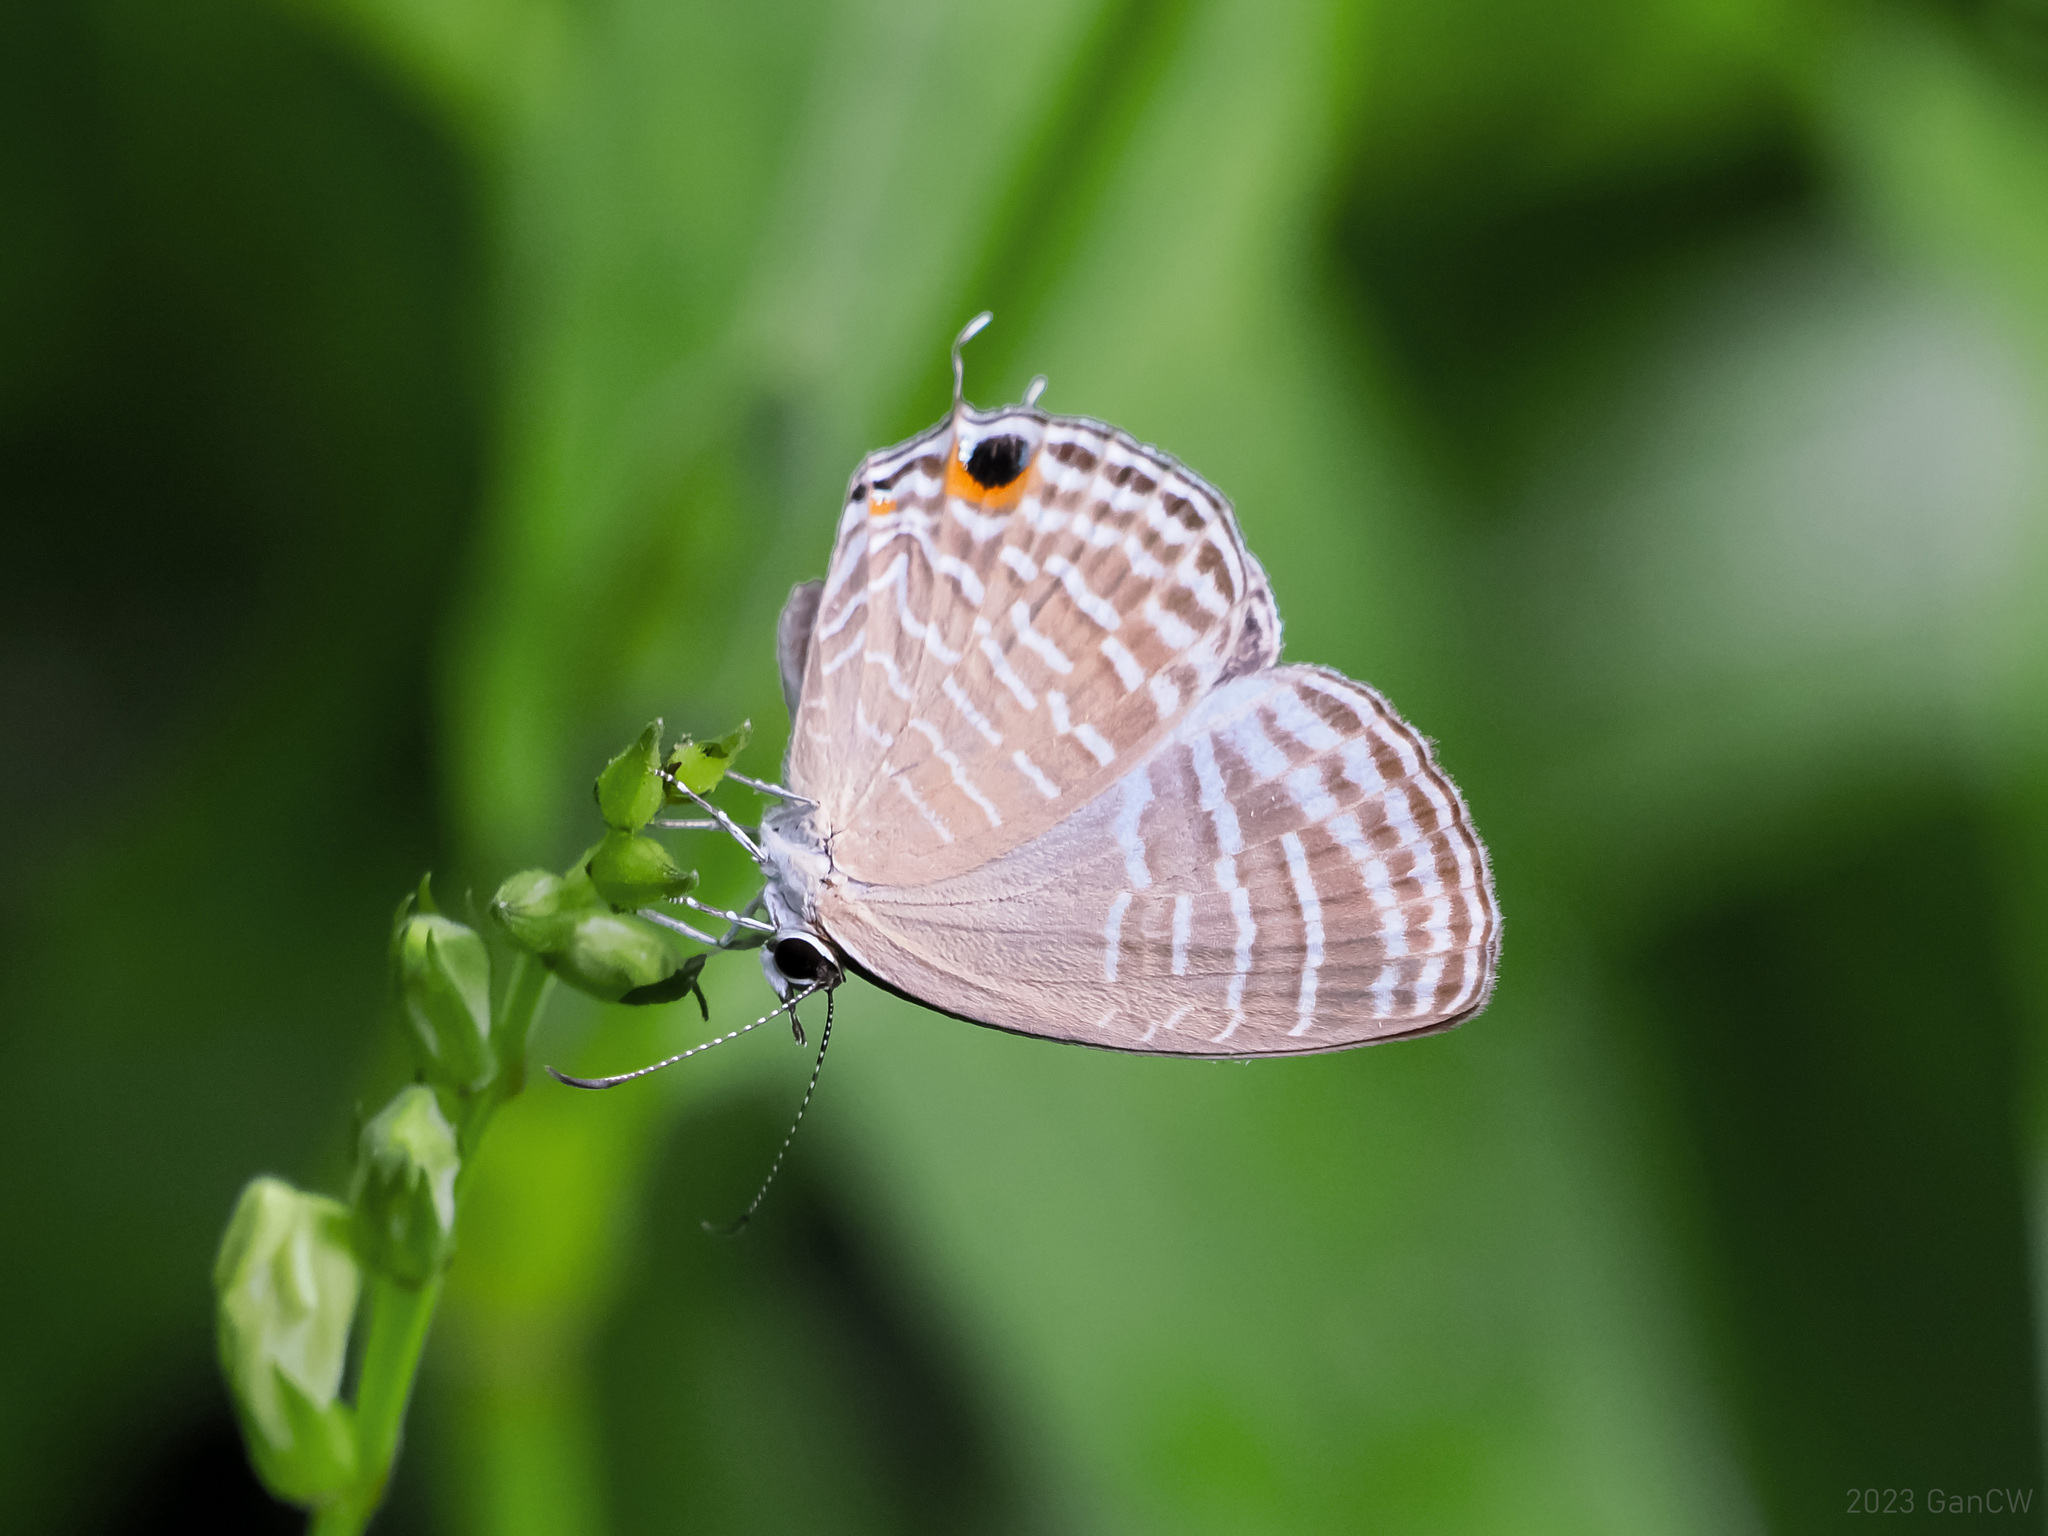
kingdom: Animalia
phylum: Arthropoda
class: Insecta
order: Lepidoptera
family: Lycaenidae
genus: Jamides
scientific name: Jamides celeno
